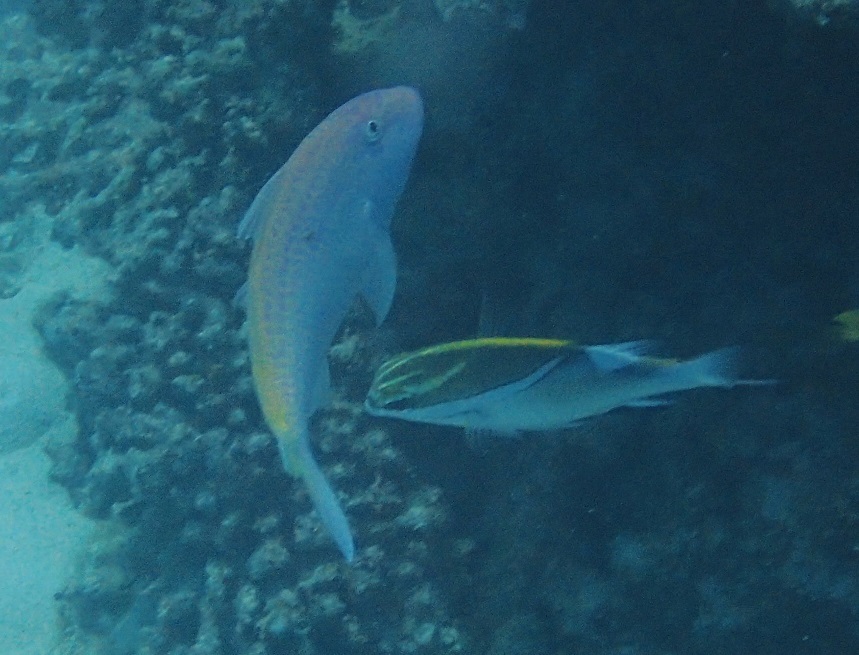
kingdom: Animalia
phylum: Chordata
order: Perciformes
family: Mullidae
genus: Parupeneus
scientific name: Parupeneus heptacanthus
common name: Cinnabar goatfish
